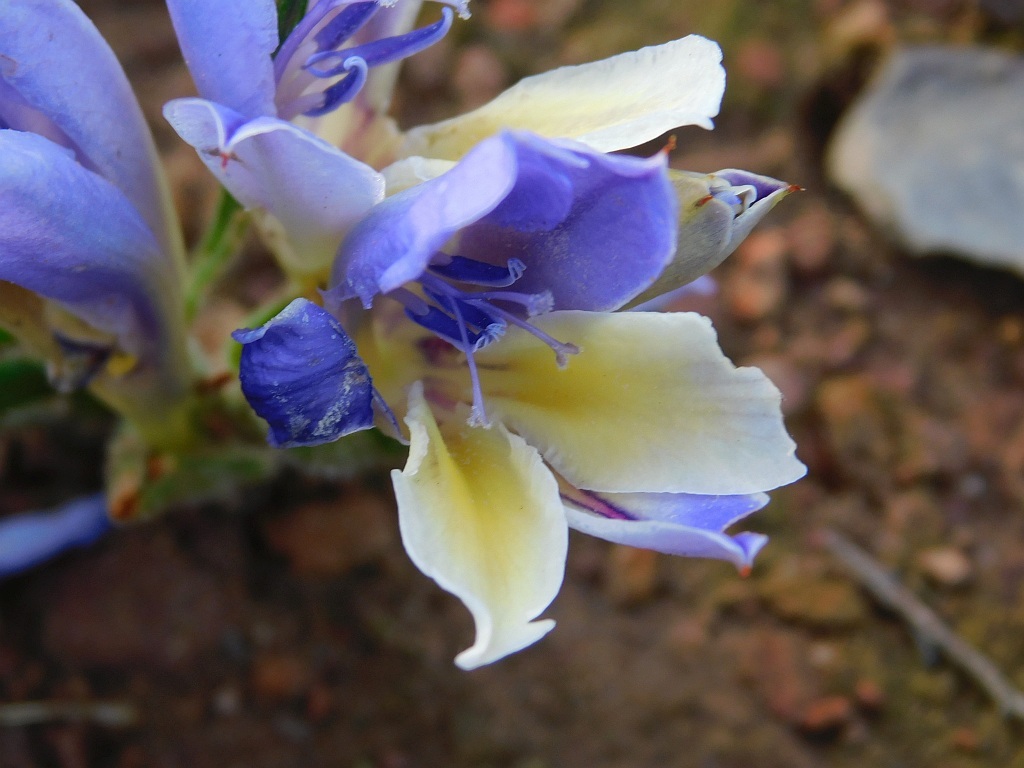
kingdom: Plantae
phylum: Tracheophyta
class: Liliopsida
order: Asparagales
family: Iridaceae
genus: Babiana
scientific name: Babiana patula
